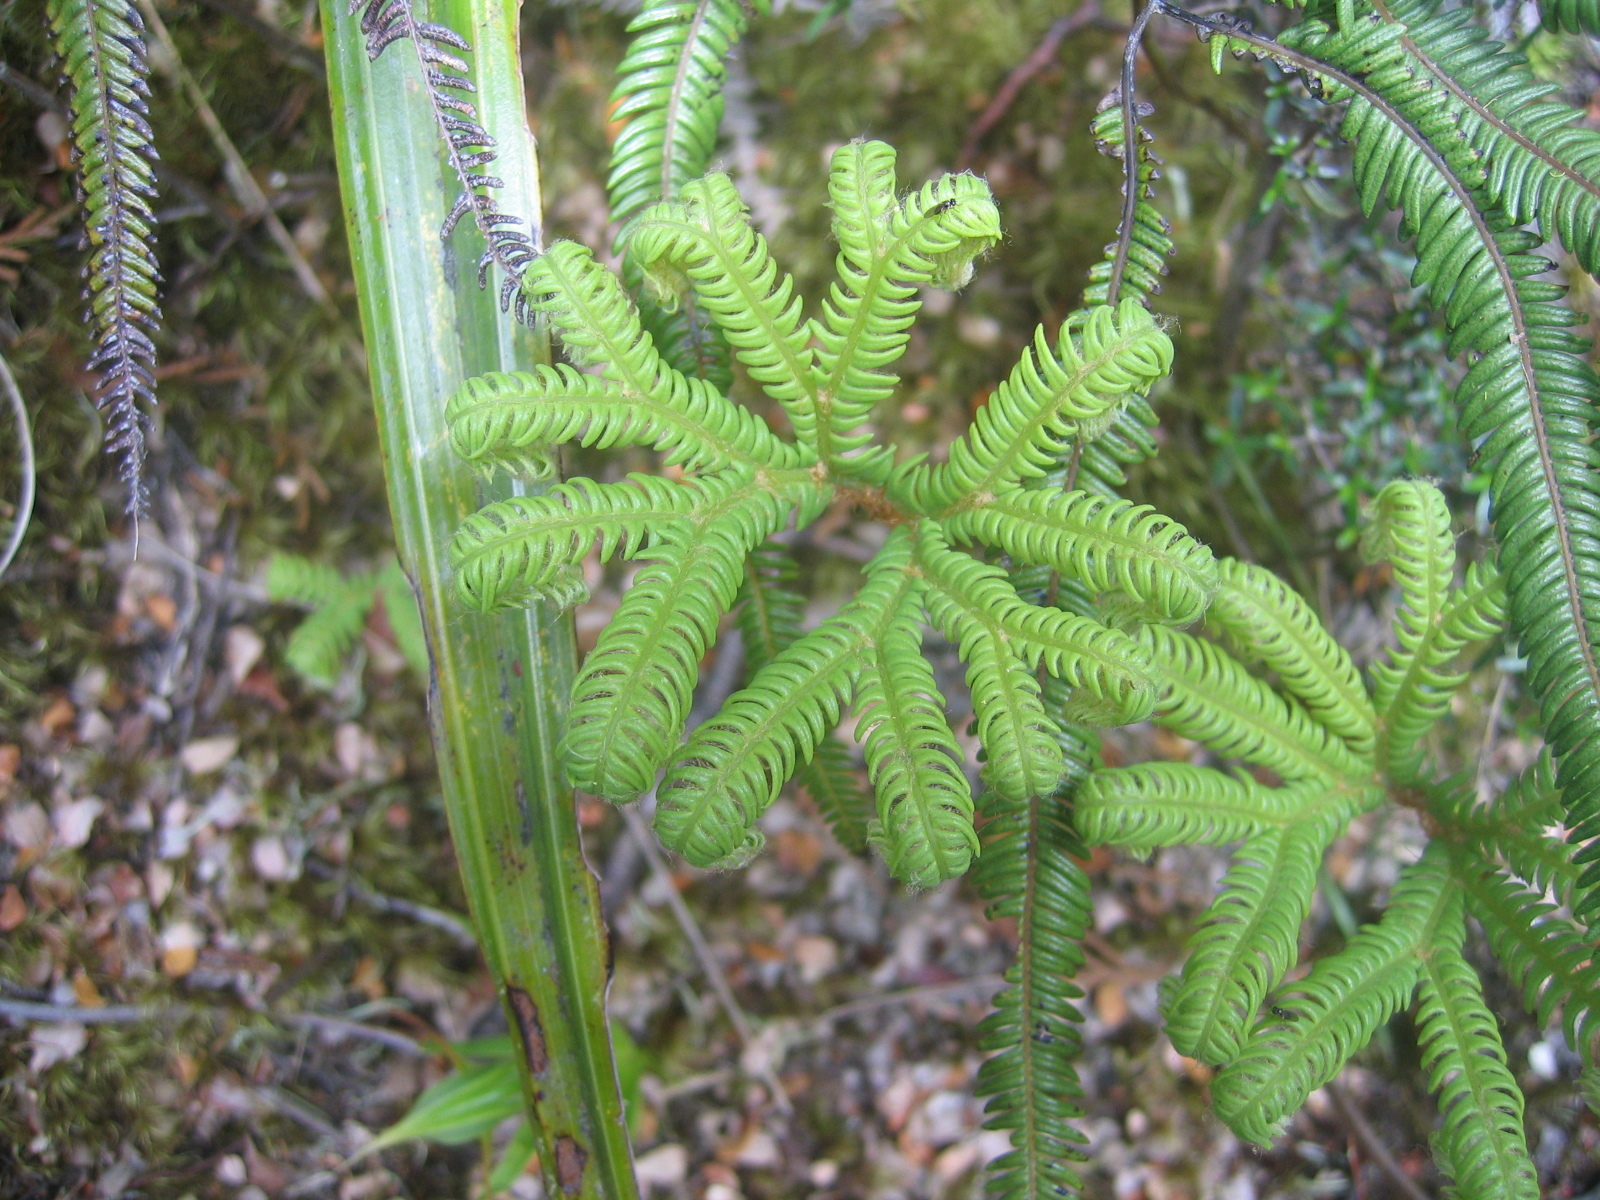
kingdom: Plantae
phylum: Tracheophyta
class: Polypodiopsida
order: Gleicheniales
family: Gleicheniaceae
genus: Sticherus
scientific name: Sticherus cunninghamii
